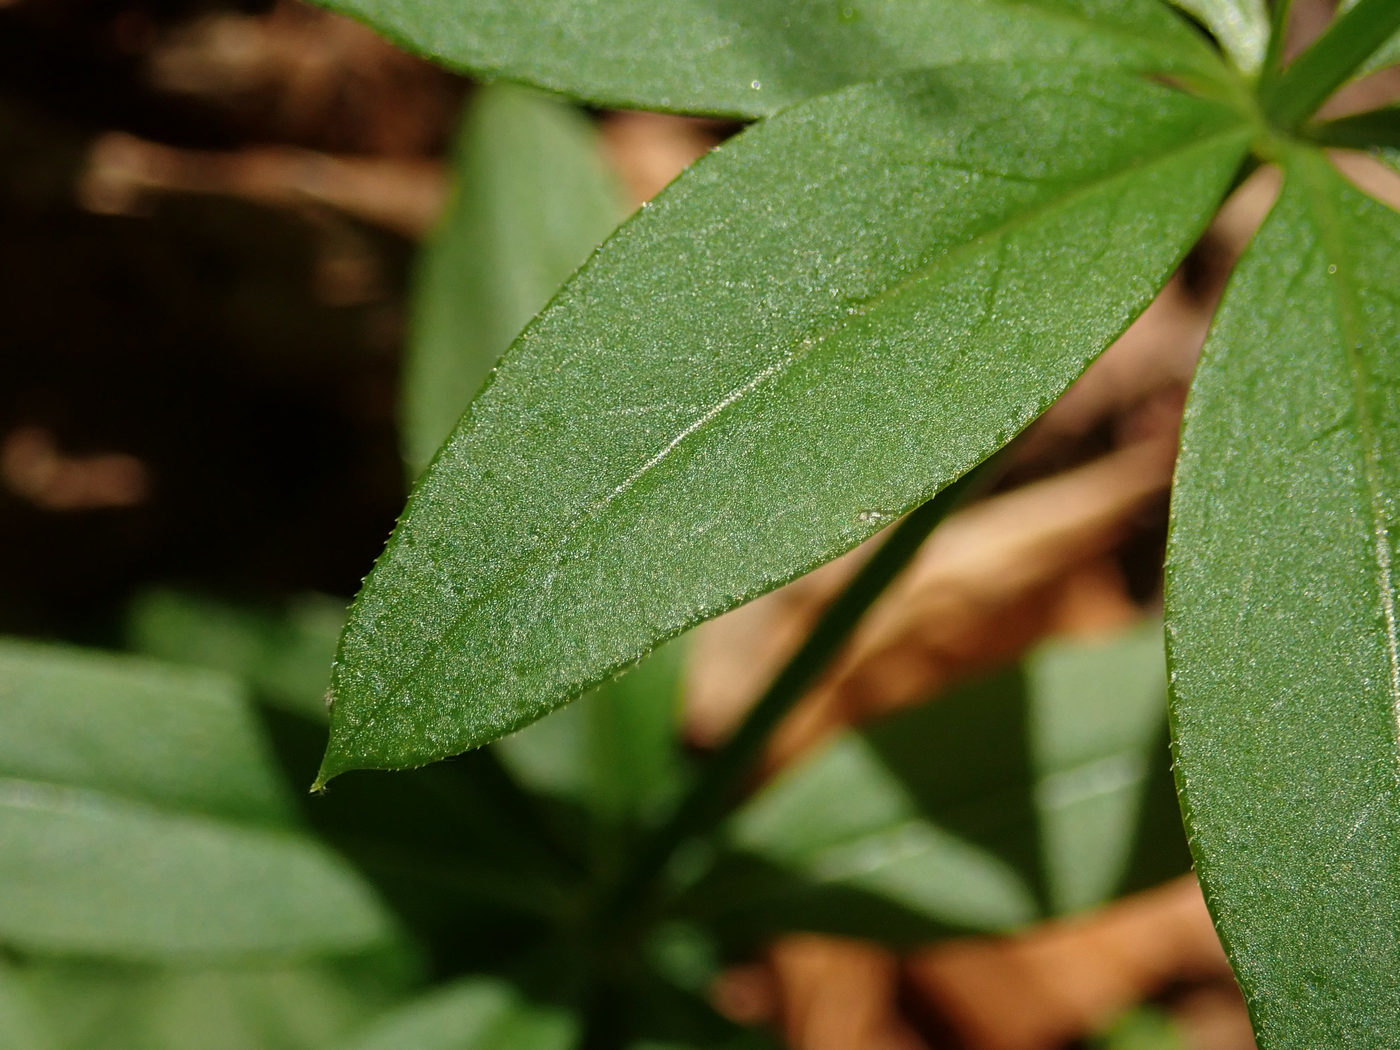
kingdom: Plantae
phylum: Tracheophyta
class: Magnoliopsida
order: Gentianales
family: Rubiaceae
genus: Galium
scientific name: Galium triflorum
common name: Fragrant bedstraw
